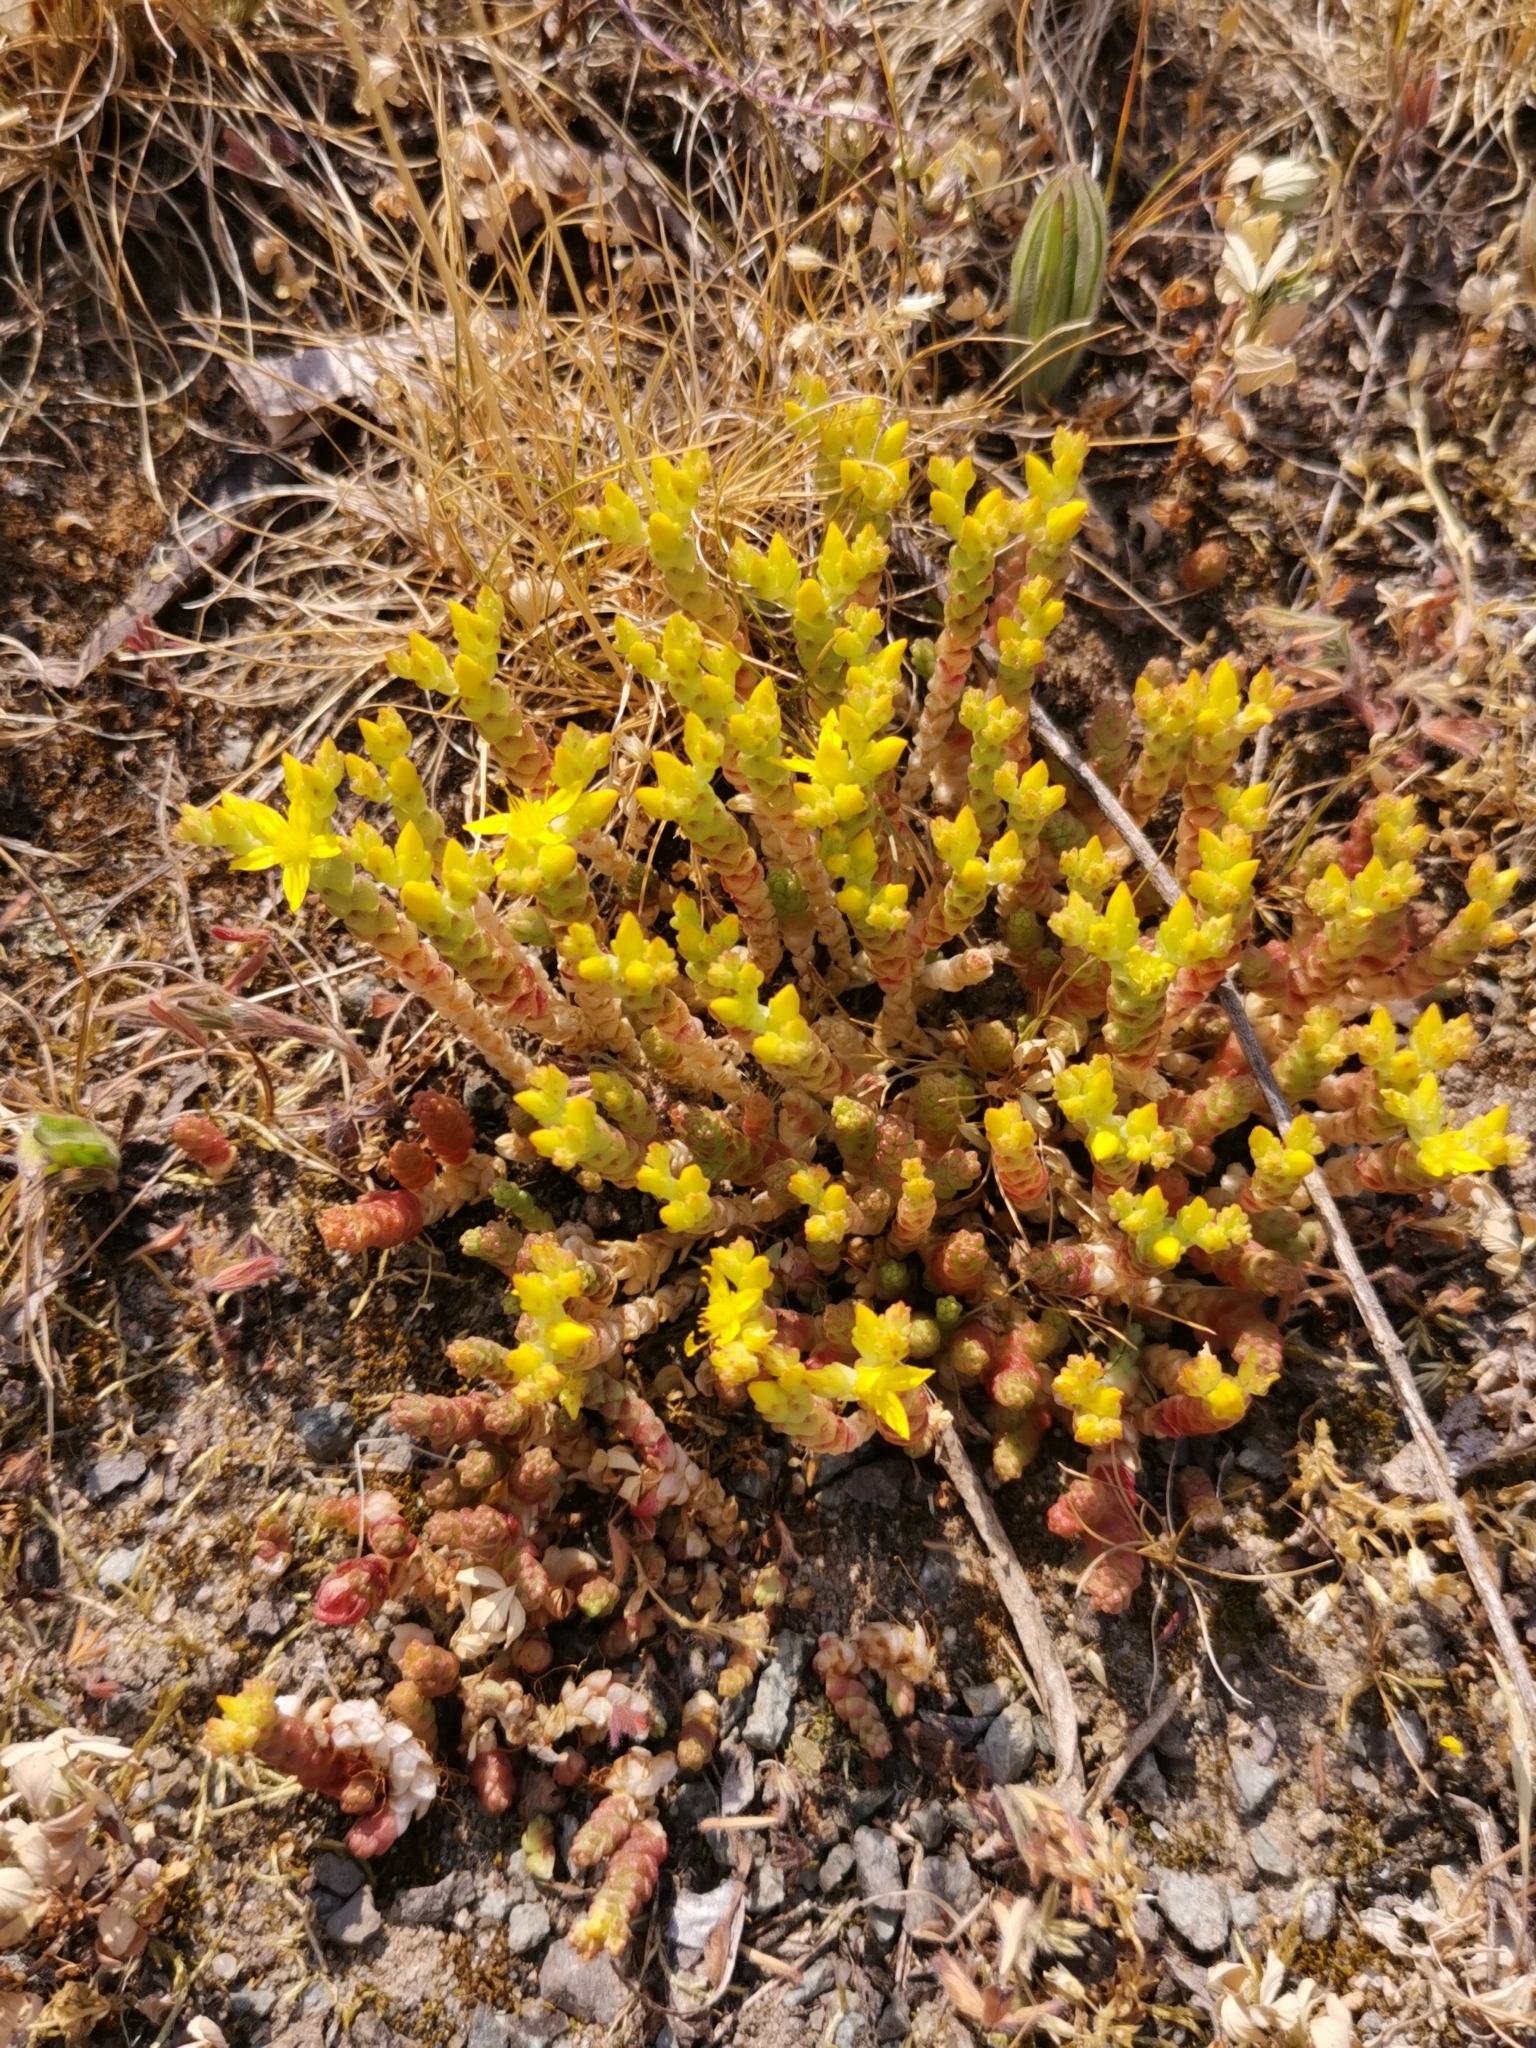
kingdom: Plantae
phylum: Tracheophyta
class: Magnoliopsida
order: Saxifragales
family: Crassulaceae
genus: Sedum
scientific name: Sedum acre
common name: Biting stonecrop
